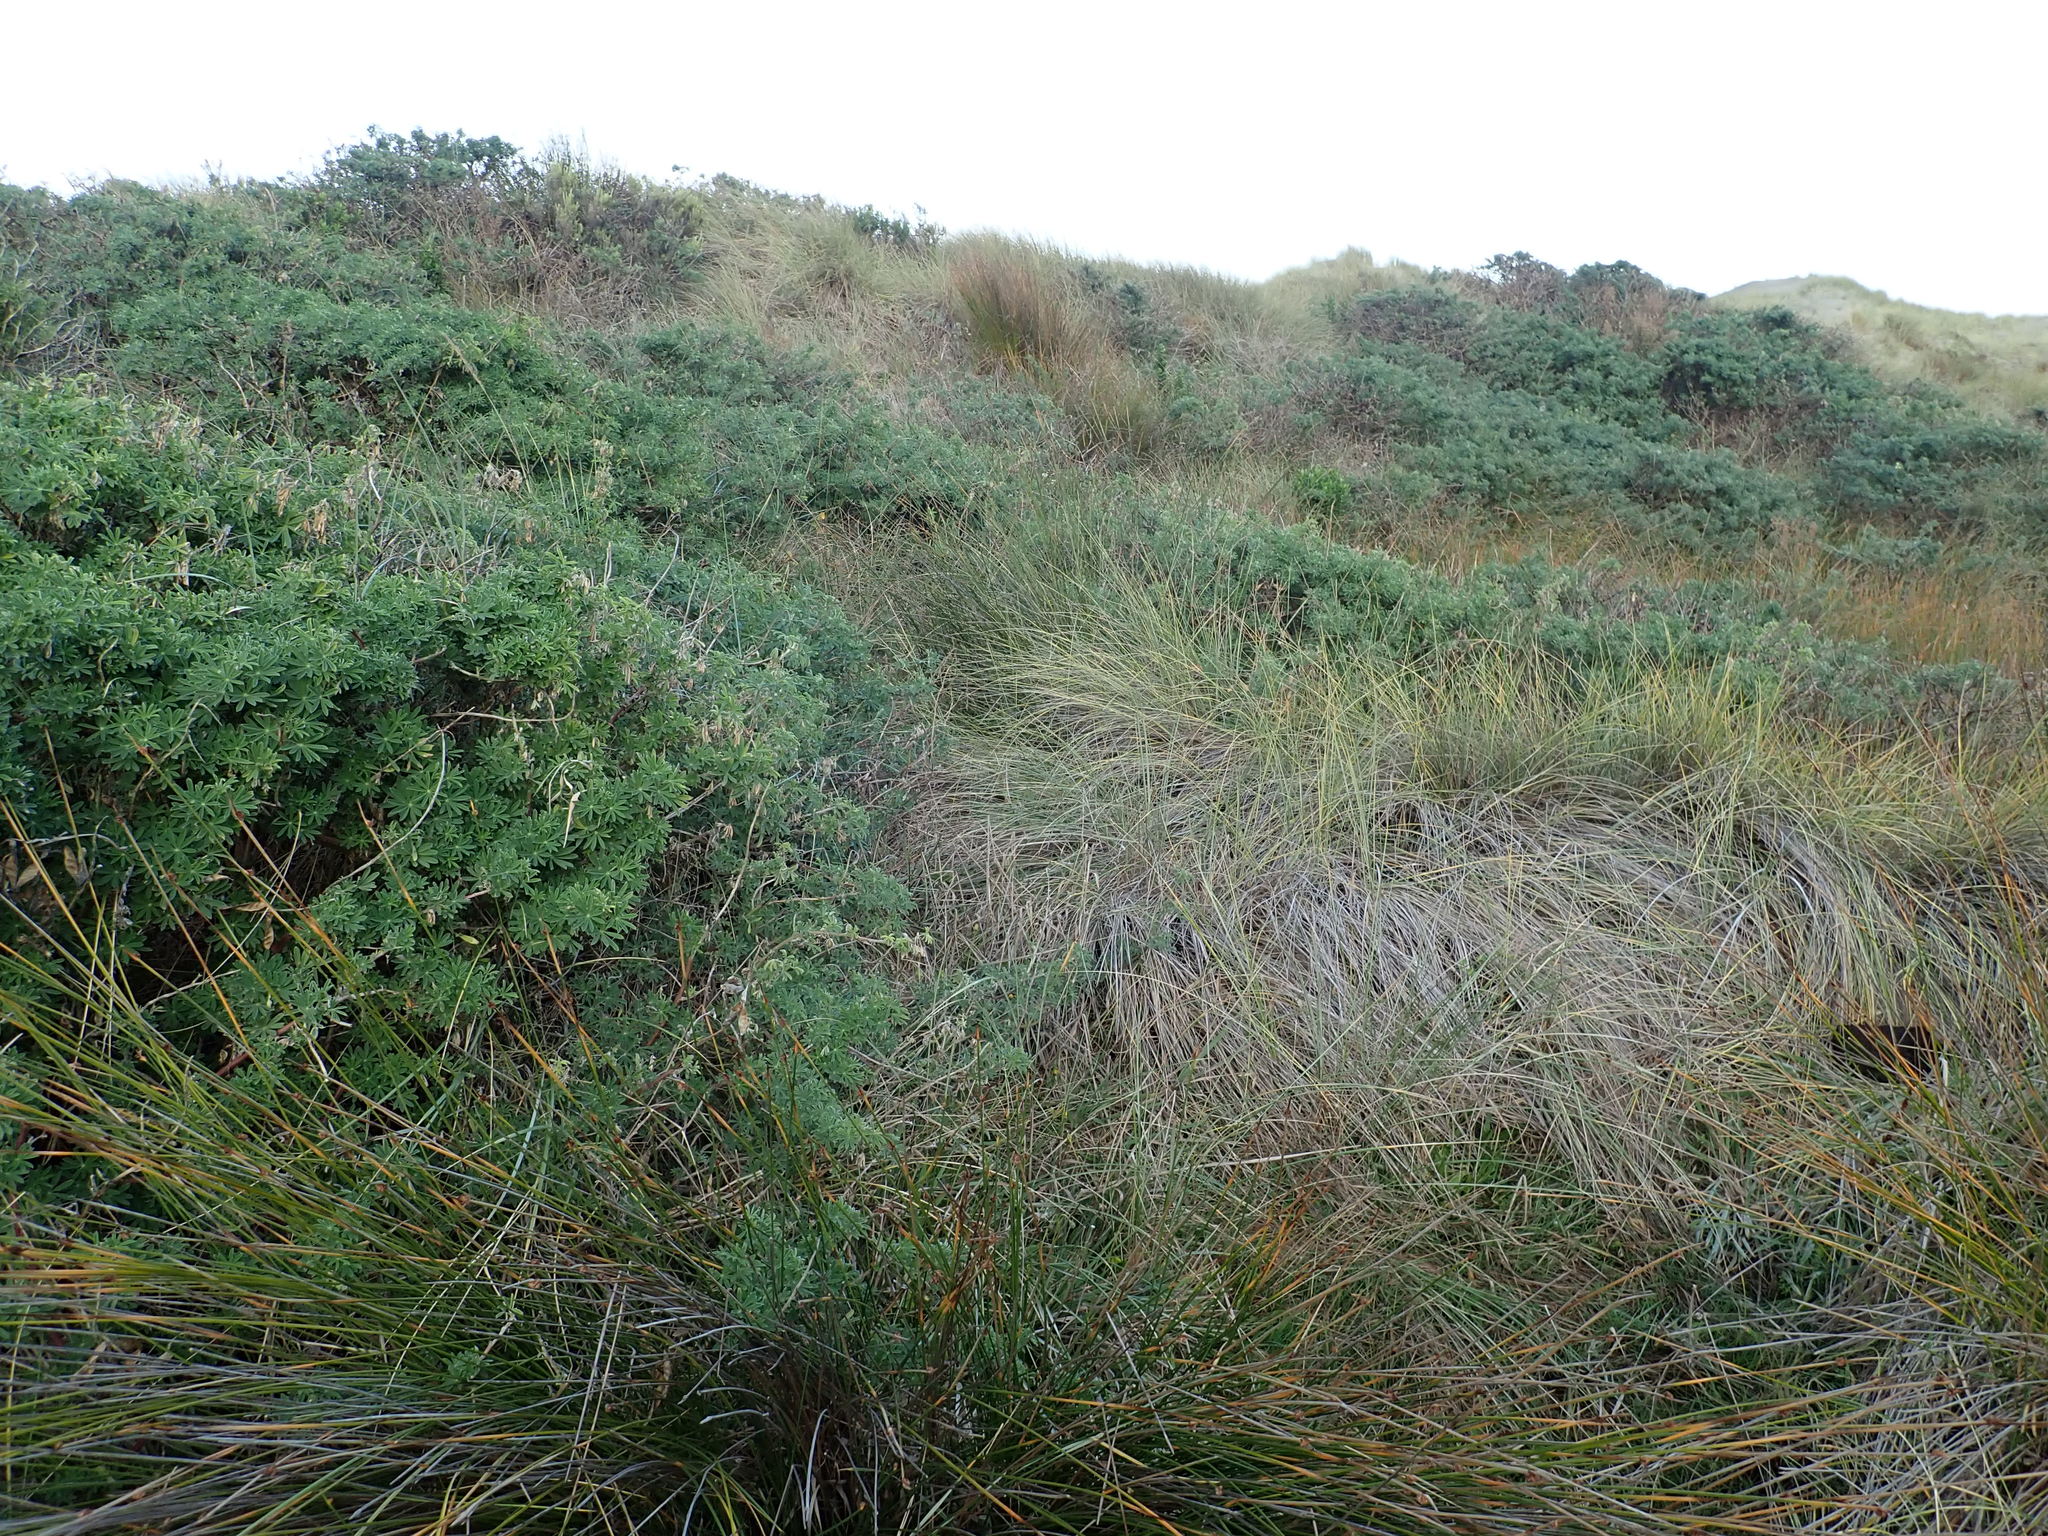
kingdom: Plantae
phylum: Tracheophyta
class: Magnoliopsida
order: Fabales
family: Fabaceae
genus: Lupinus
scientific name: Lupinus arboreus
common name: Yellow bush lupine
